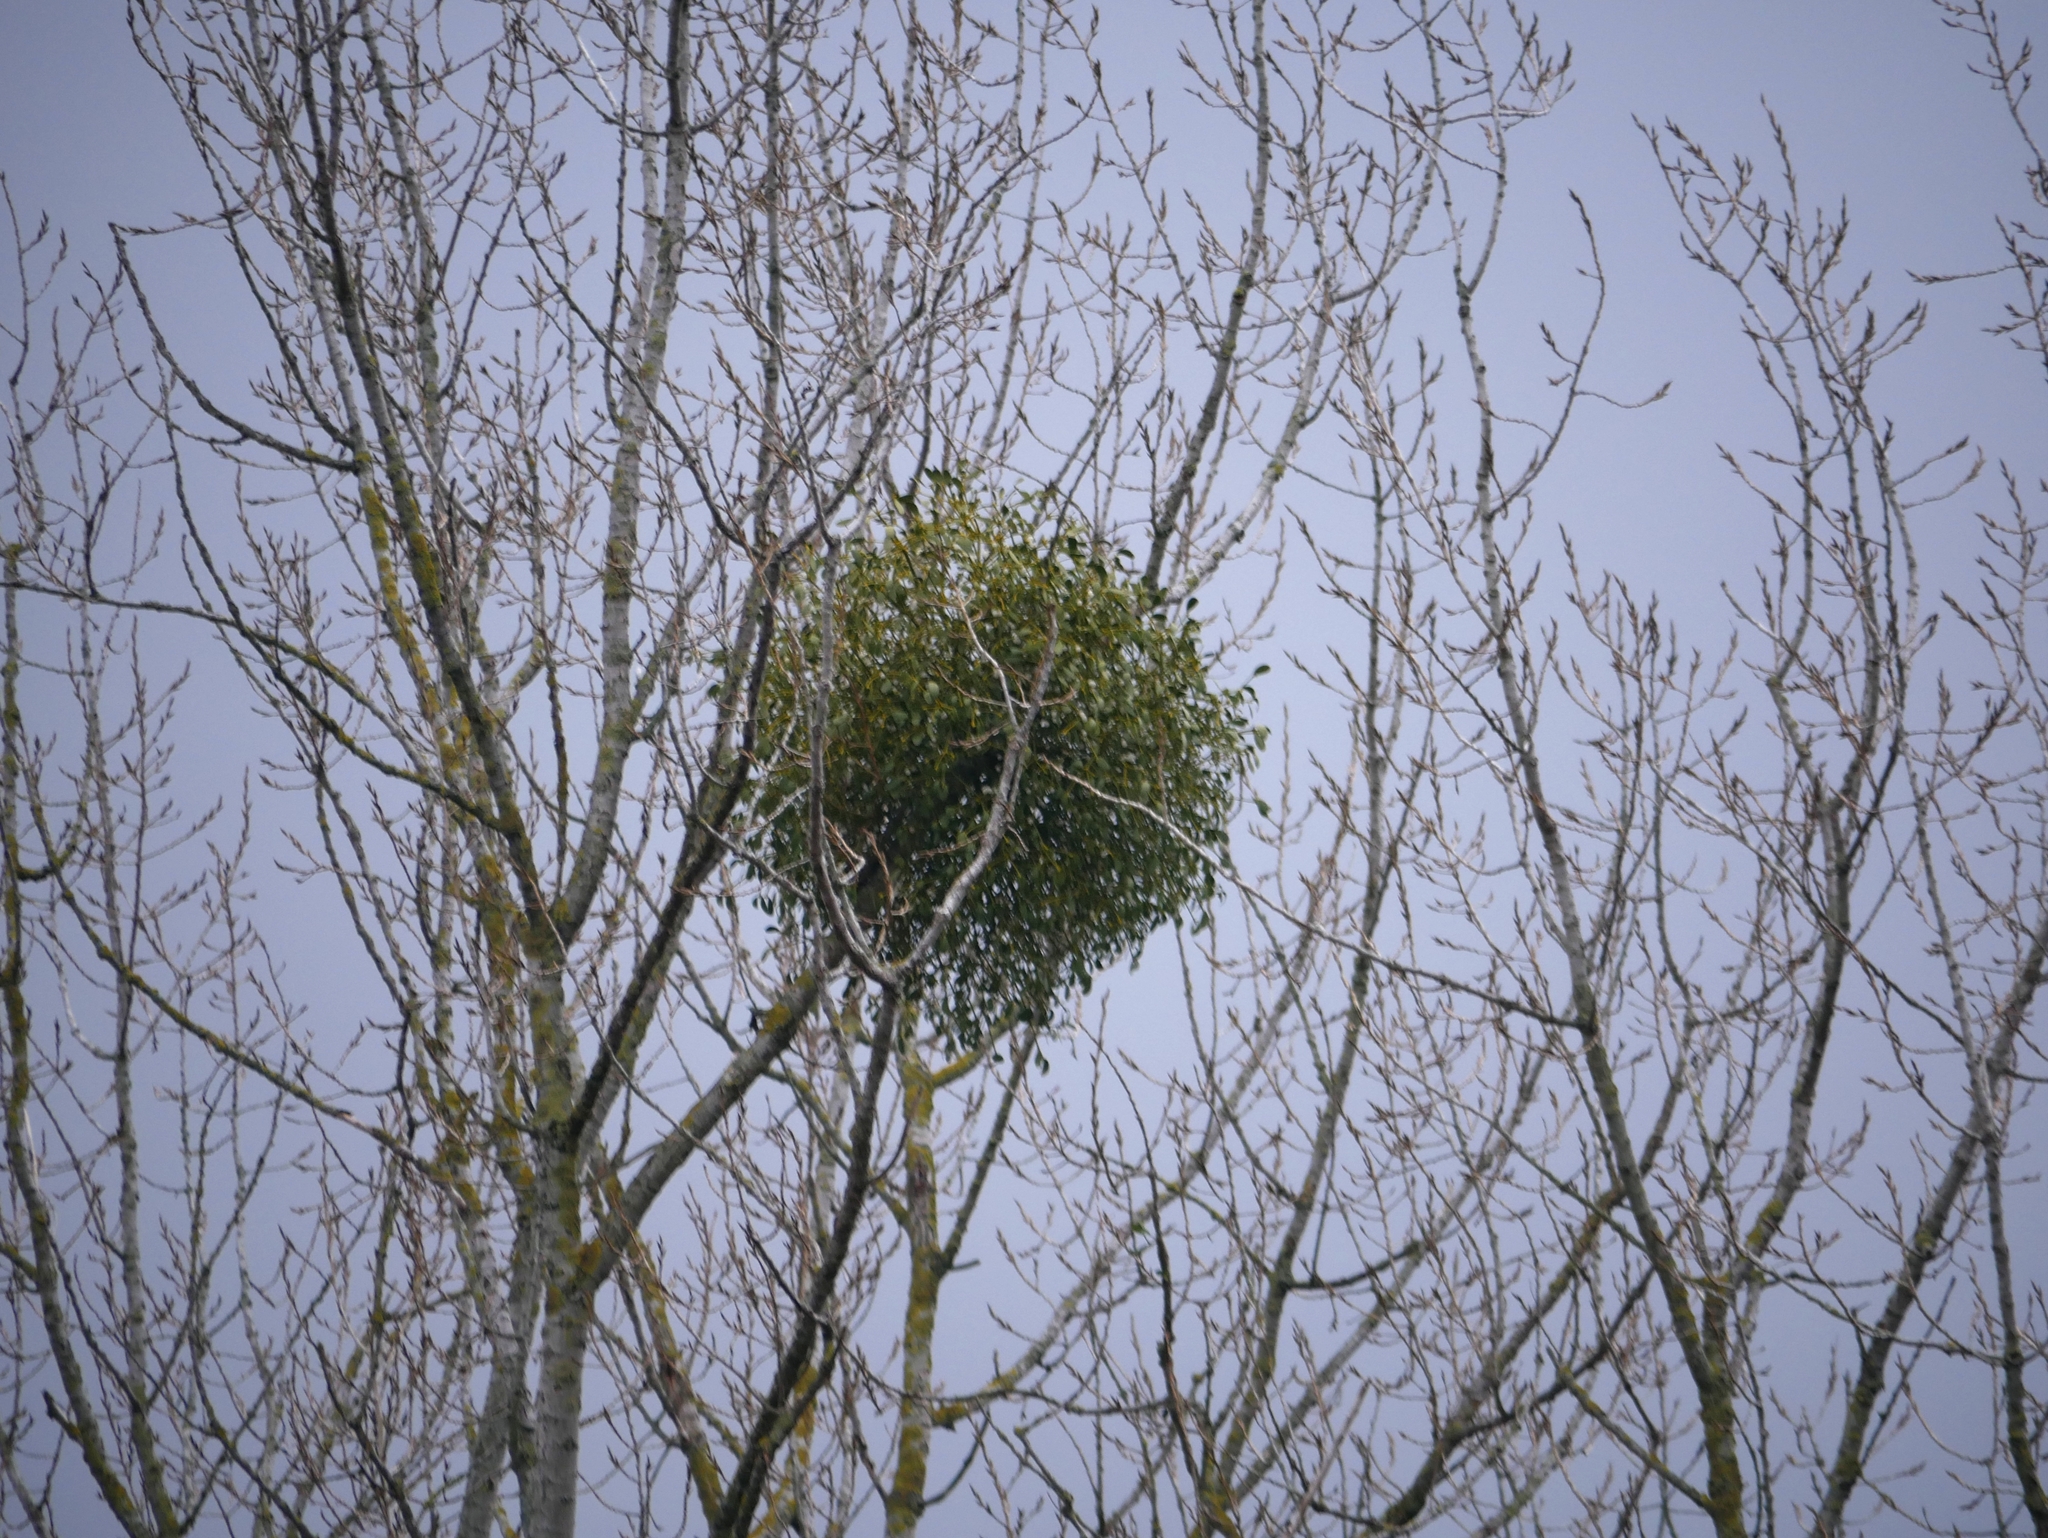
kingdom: Plantae
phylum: Tracheophyta
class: Magnoliopsida
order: Santalales
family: Viscaceae
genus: Viscum
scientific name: Viscum album
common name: Mistletoe
